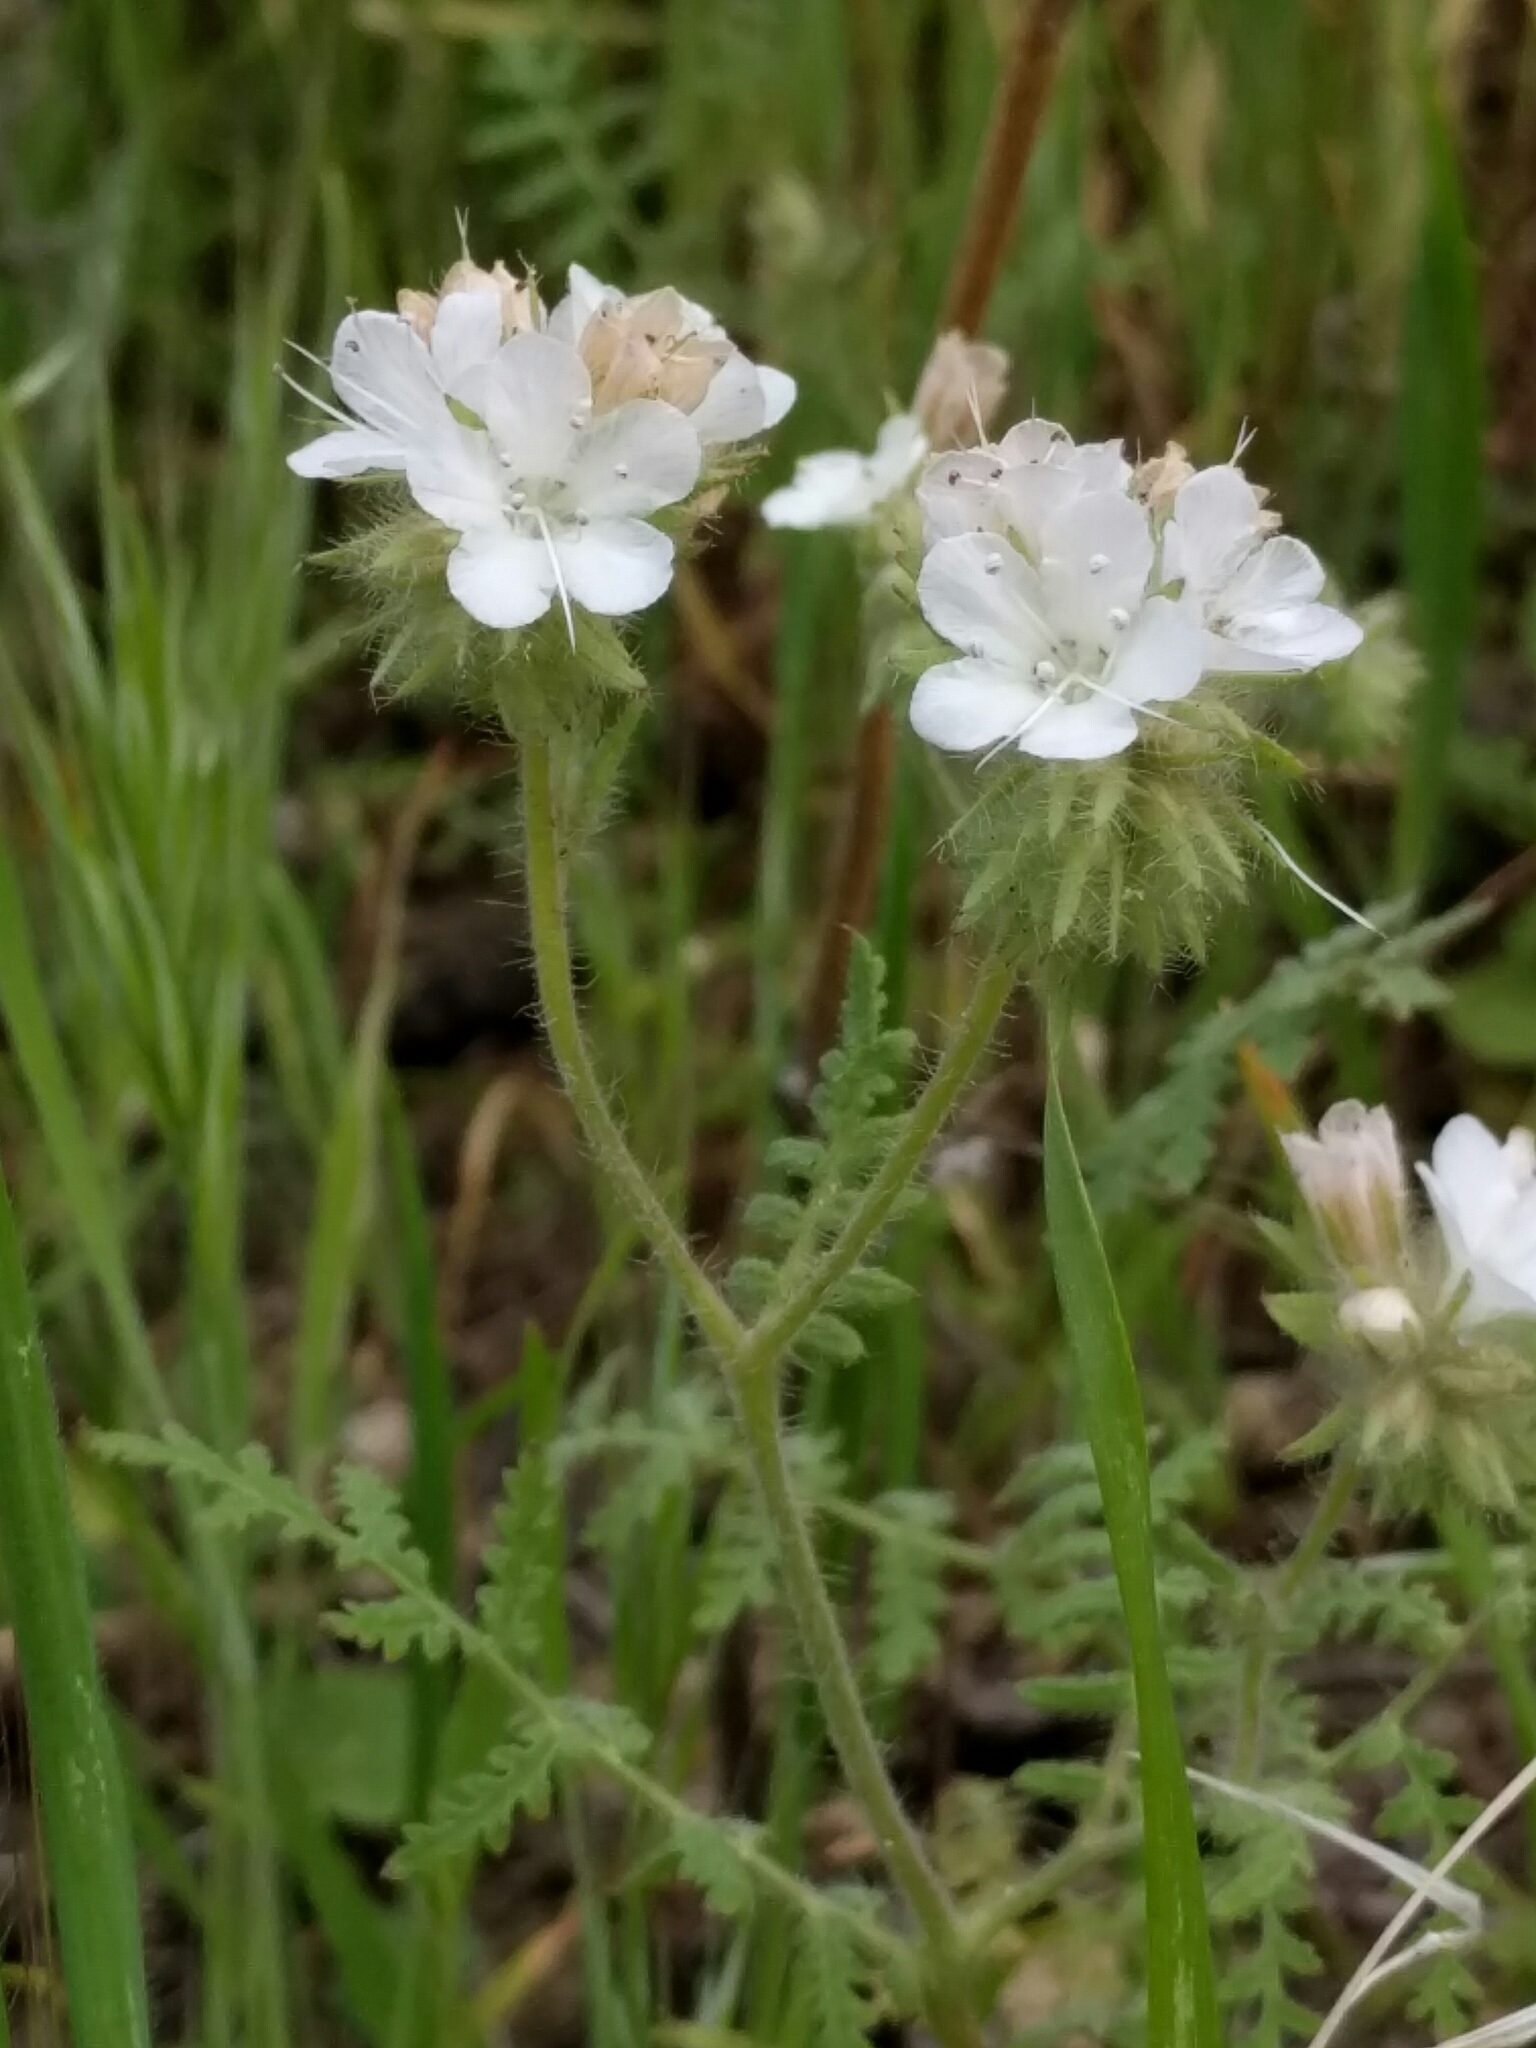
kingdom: Plantae
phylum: Tracheophyta
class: Magnoliopsida
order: Boraginales
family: Hydrophyllaceae
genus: Phacelia
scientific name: Phacelia distans
